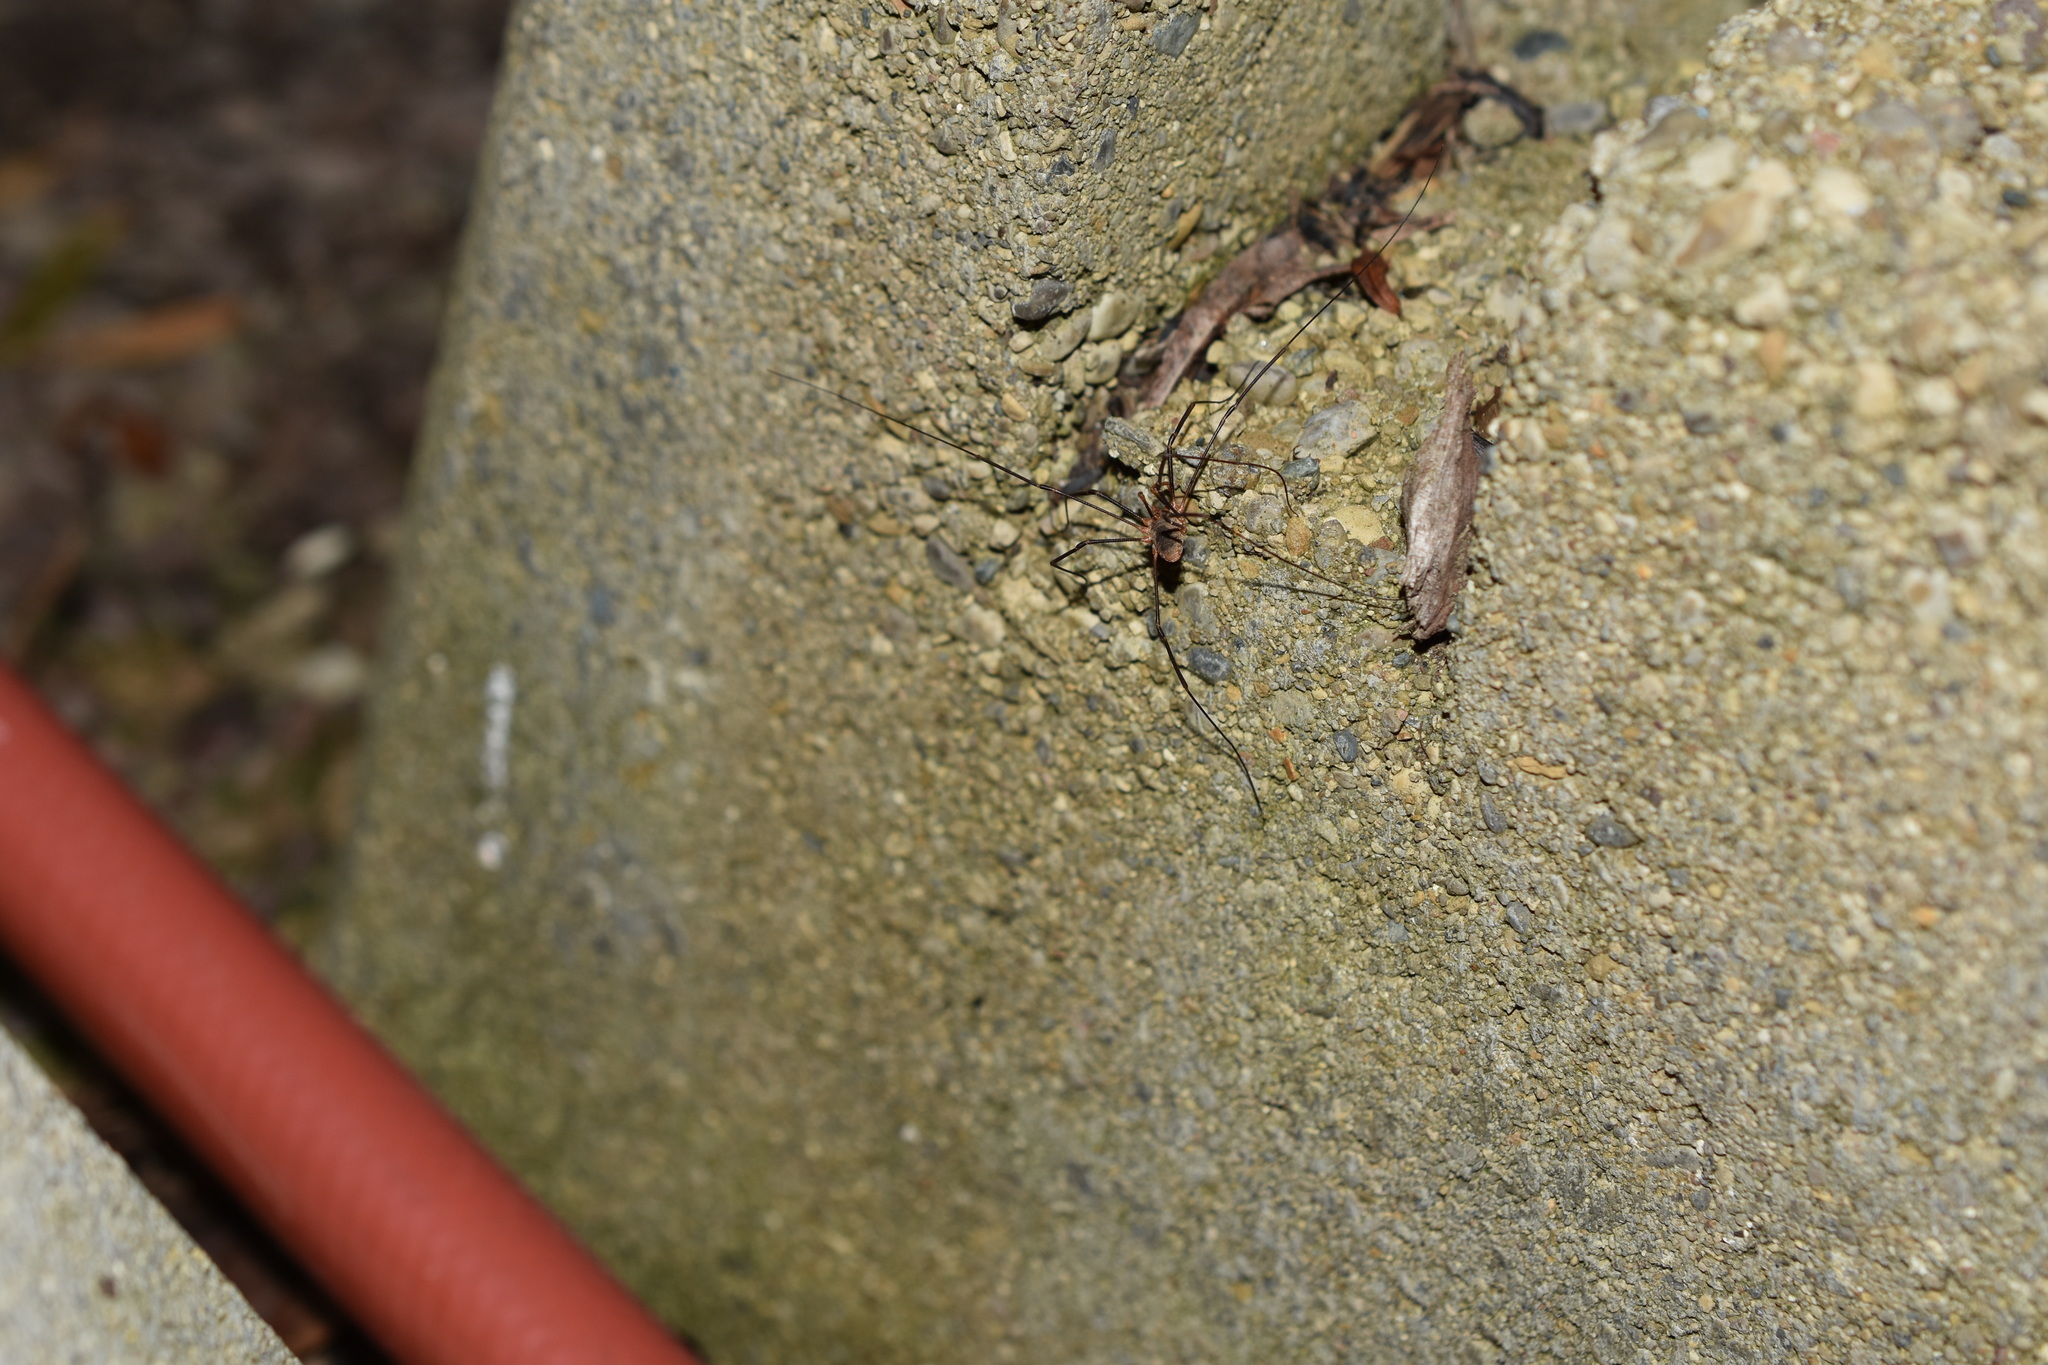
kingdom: Animalia
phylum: Arthropoda
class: Arachnida
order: Opiliones
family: Phalangiidae
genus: Phalangium
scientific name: Phalangium opilio
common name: Daddy longleg
